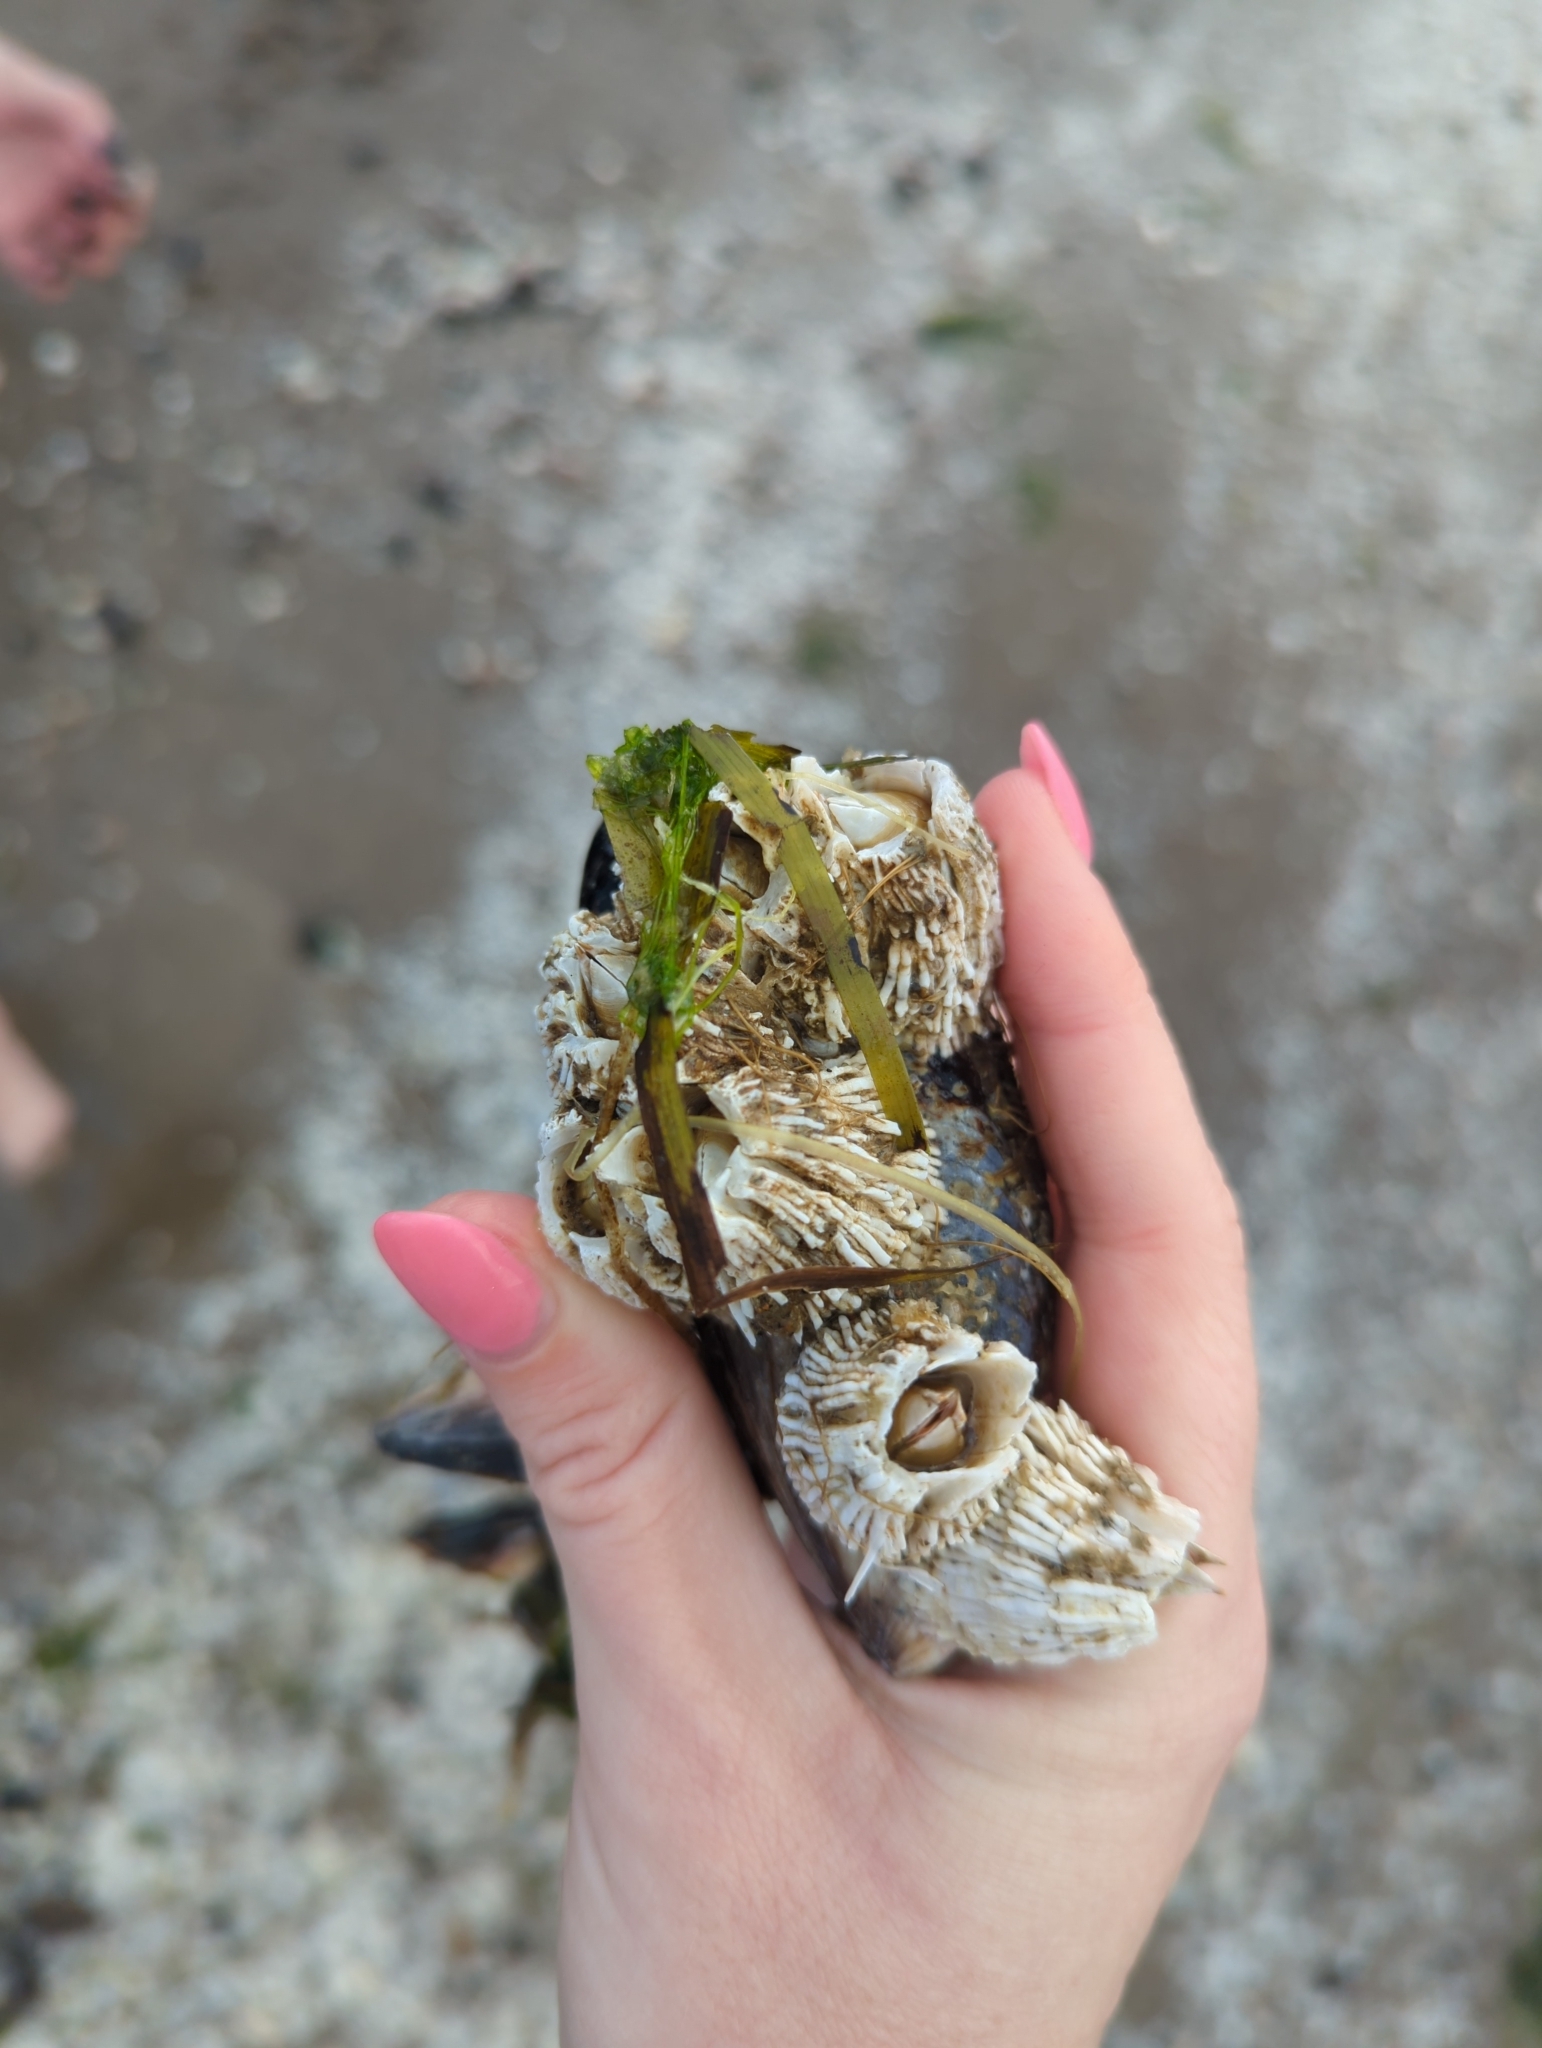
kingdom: Animalia
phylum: Arthropoda
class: Maxillopoda
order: Sessilia
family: Archaeobalanidae
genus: Semibalanus
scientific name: Semibalanus cariosus
